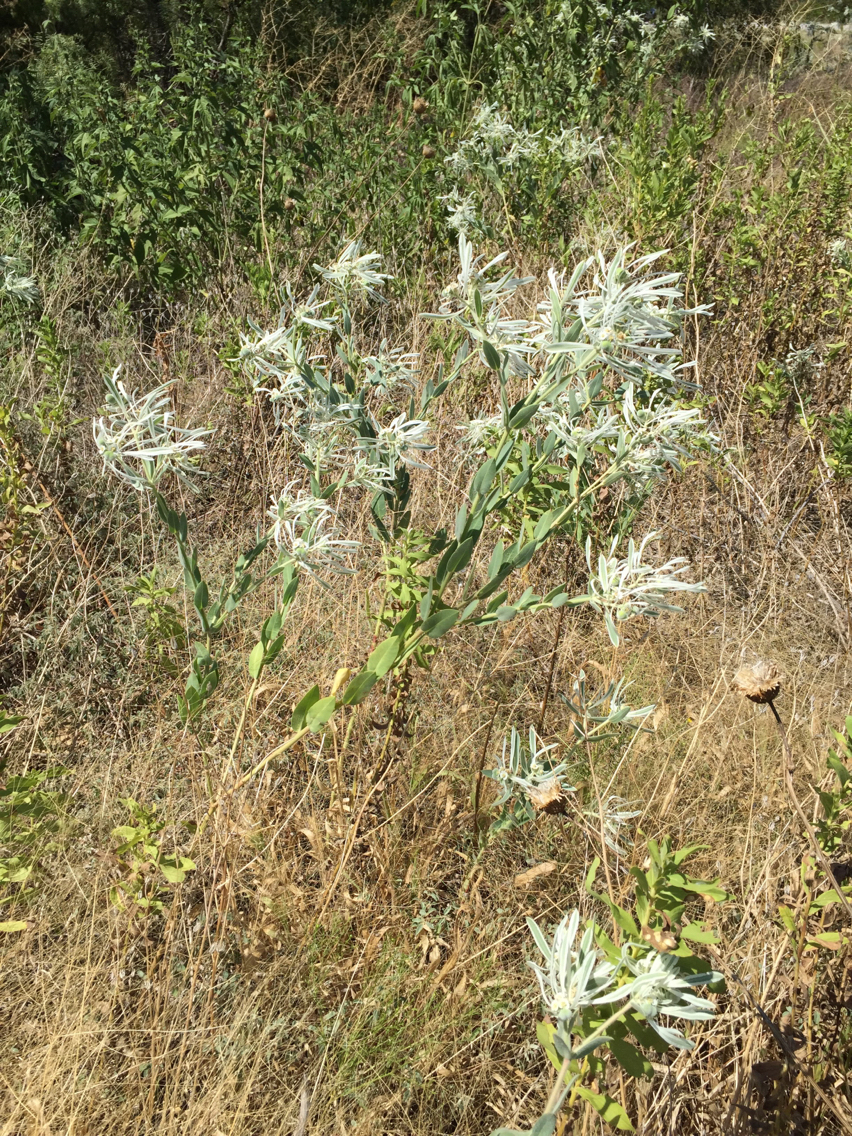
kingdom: Plantae
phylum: Tracheophyta
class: Magnoliopsida
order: Malpighiales
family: Euphorbiaceae
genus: Euphorbia
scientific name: Euphorbia bicolor
